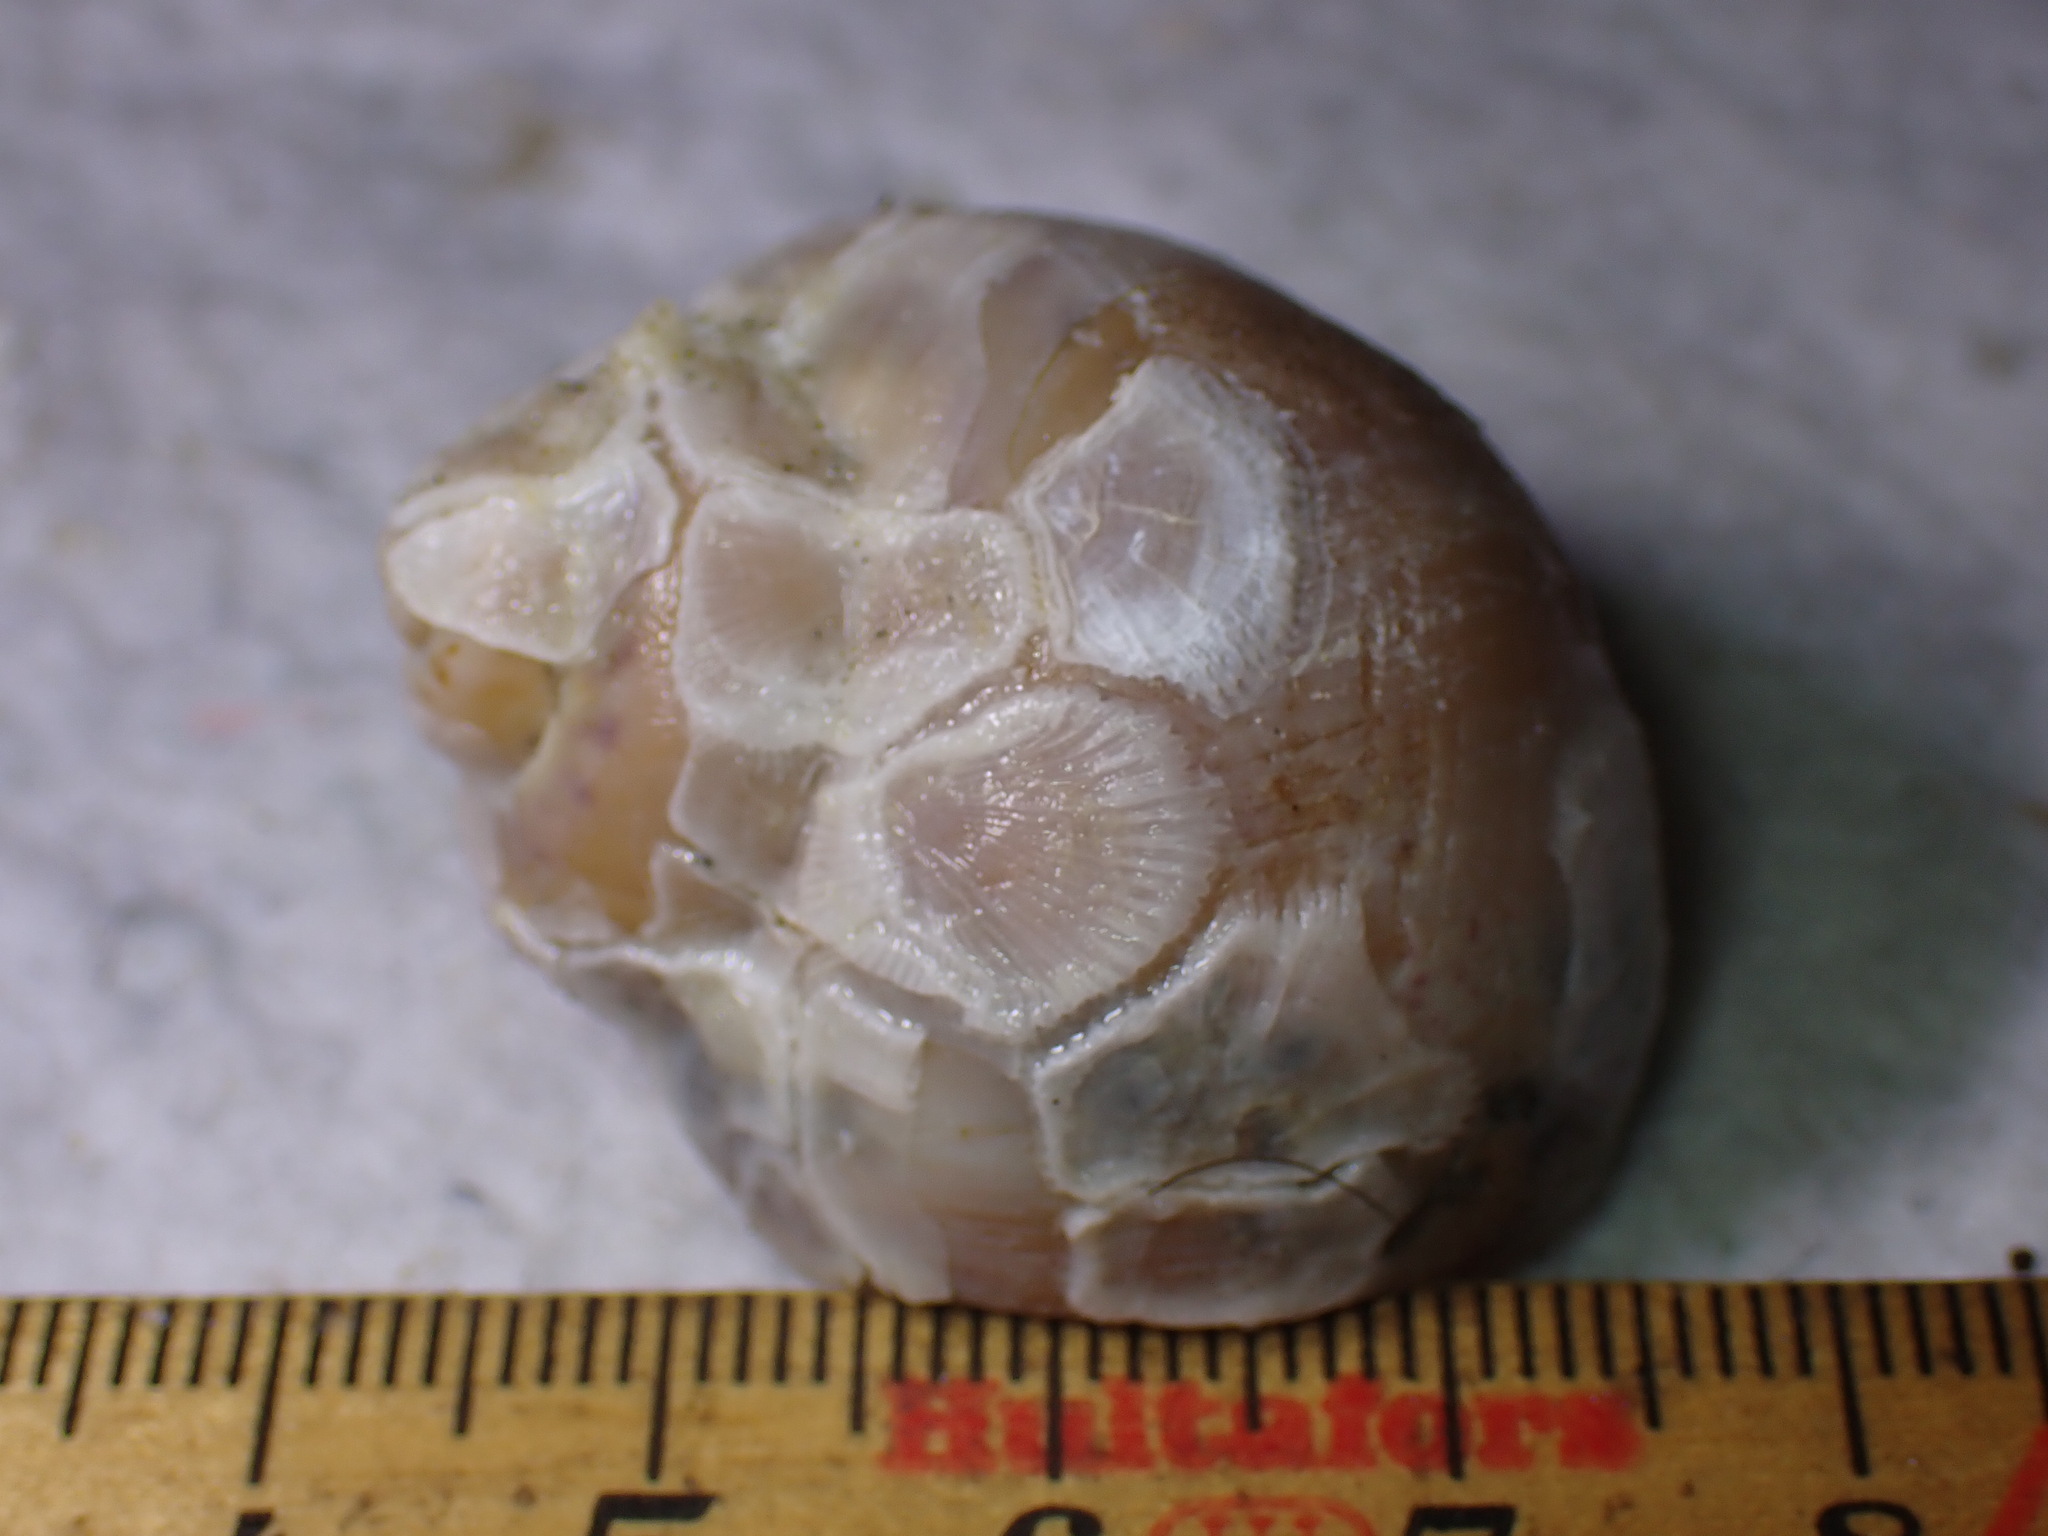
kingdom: Animalia
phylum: Mollusca
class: Gastropoda
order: Littorinimorpha
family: Naticidae
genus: Euspira
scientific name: Euspira catena
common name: Necklace shell
